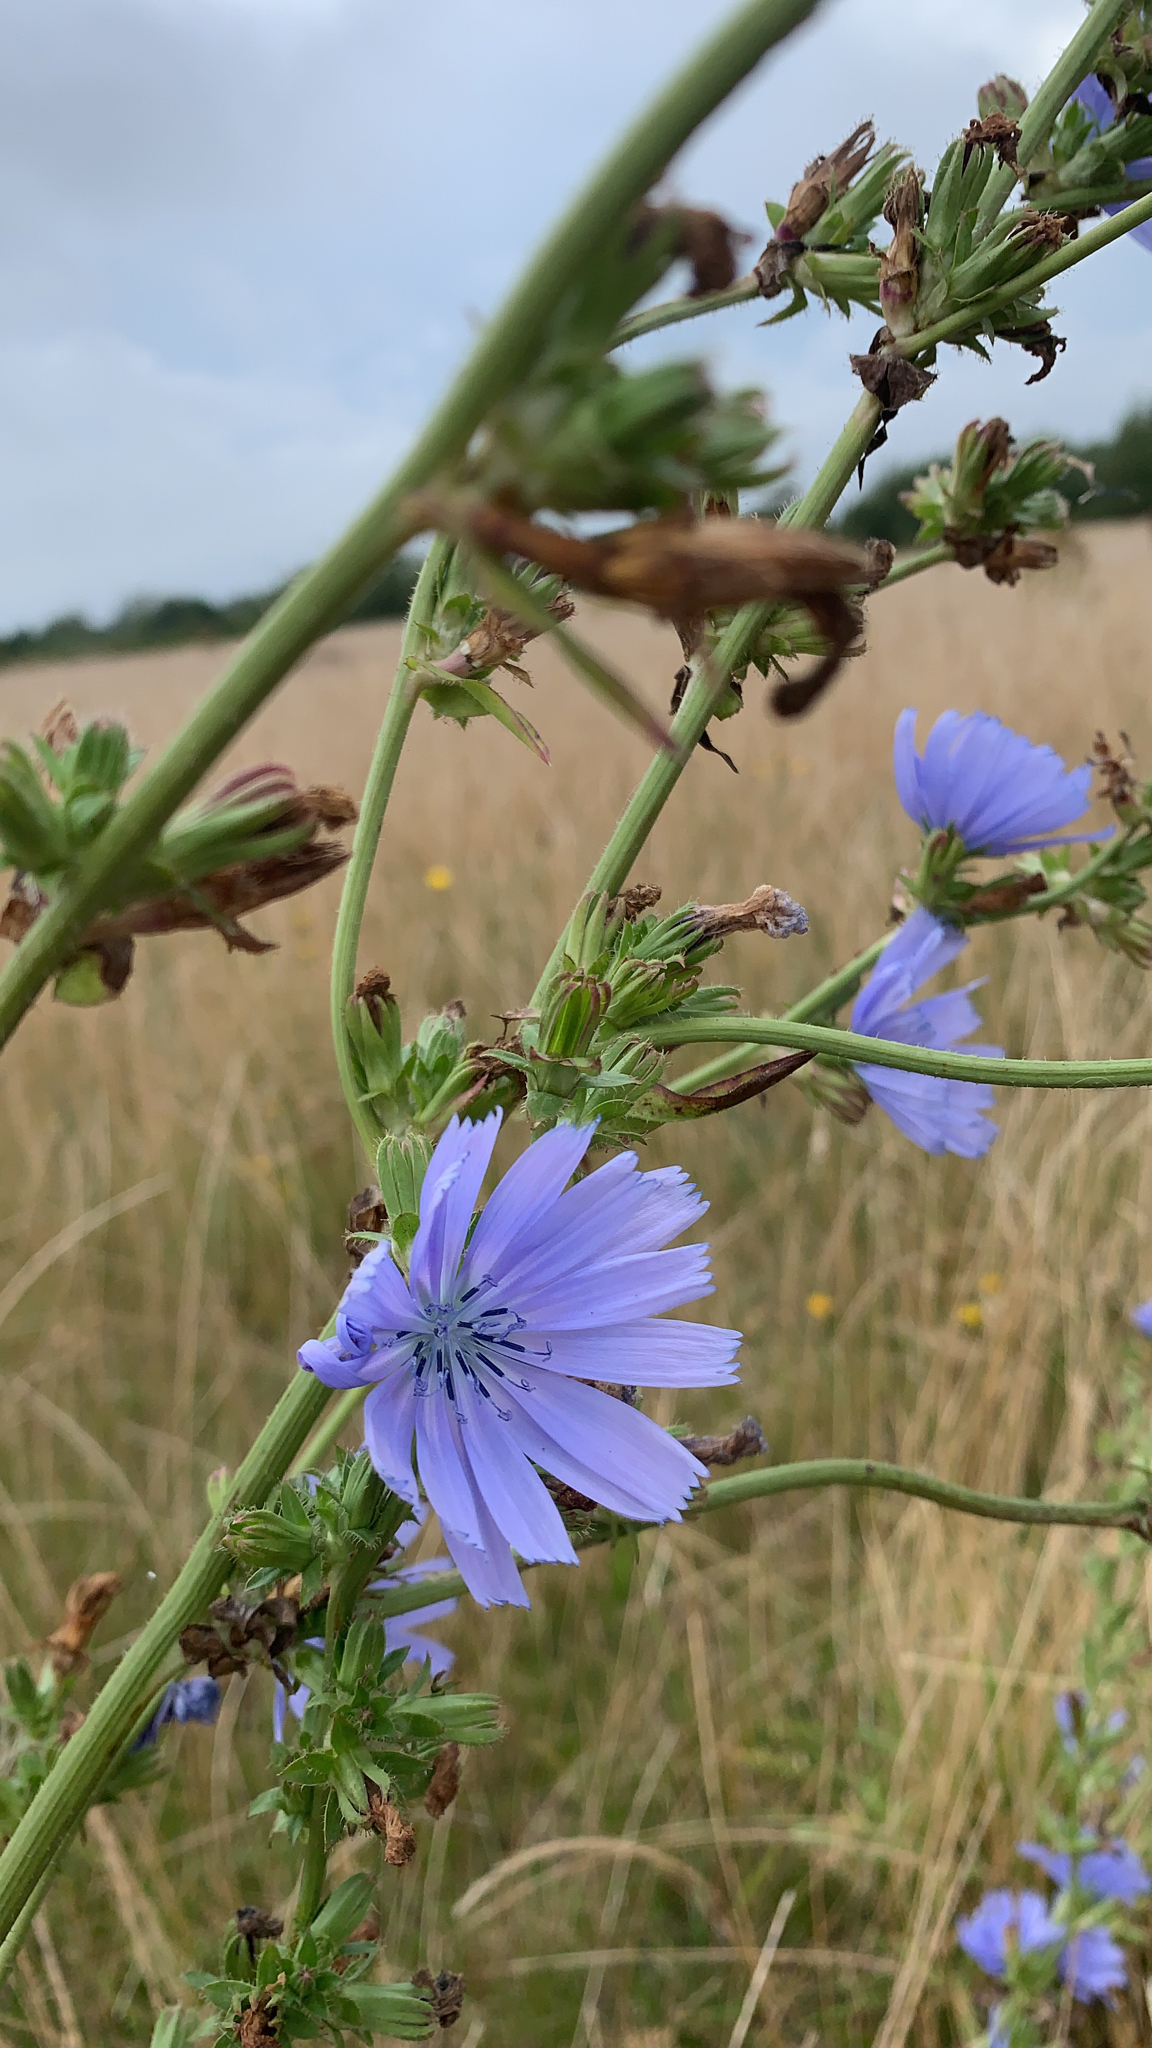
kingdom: Plantae
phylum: Tracheophyta
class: Magnoliopsida
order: Asterales
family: Asteraceae
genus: Cichorium
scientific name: Cichorium intybus
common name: Chicory
